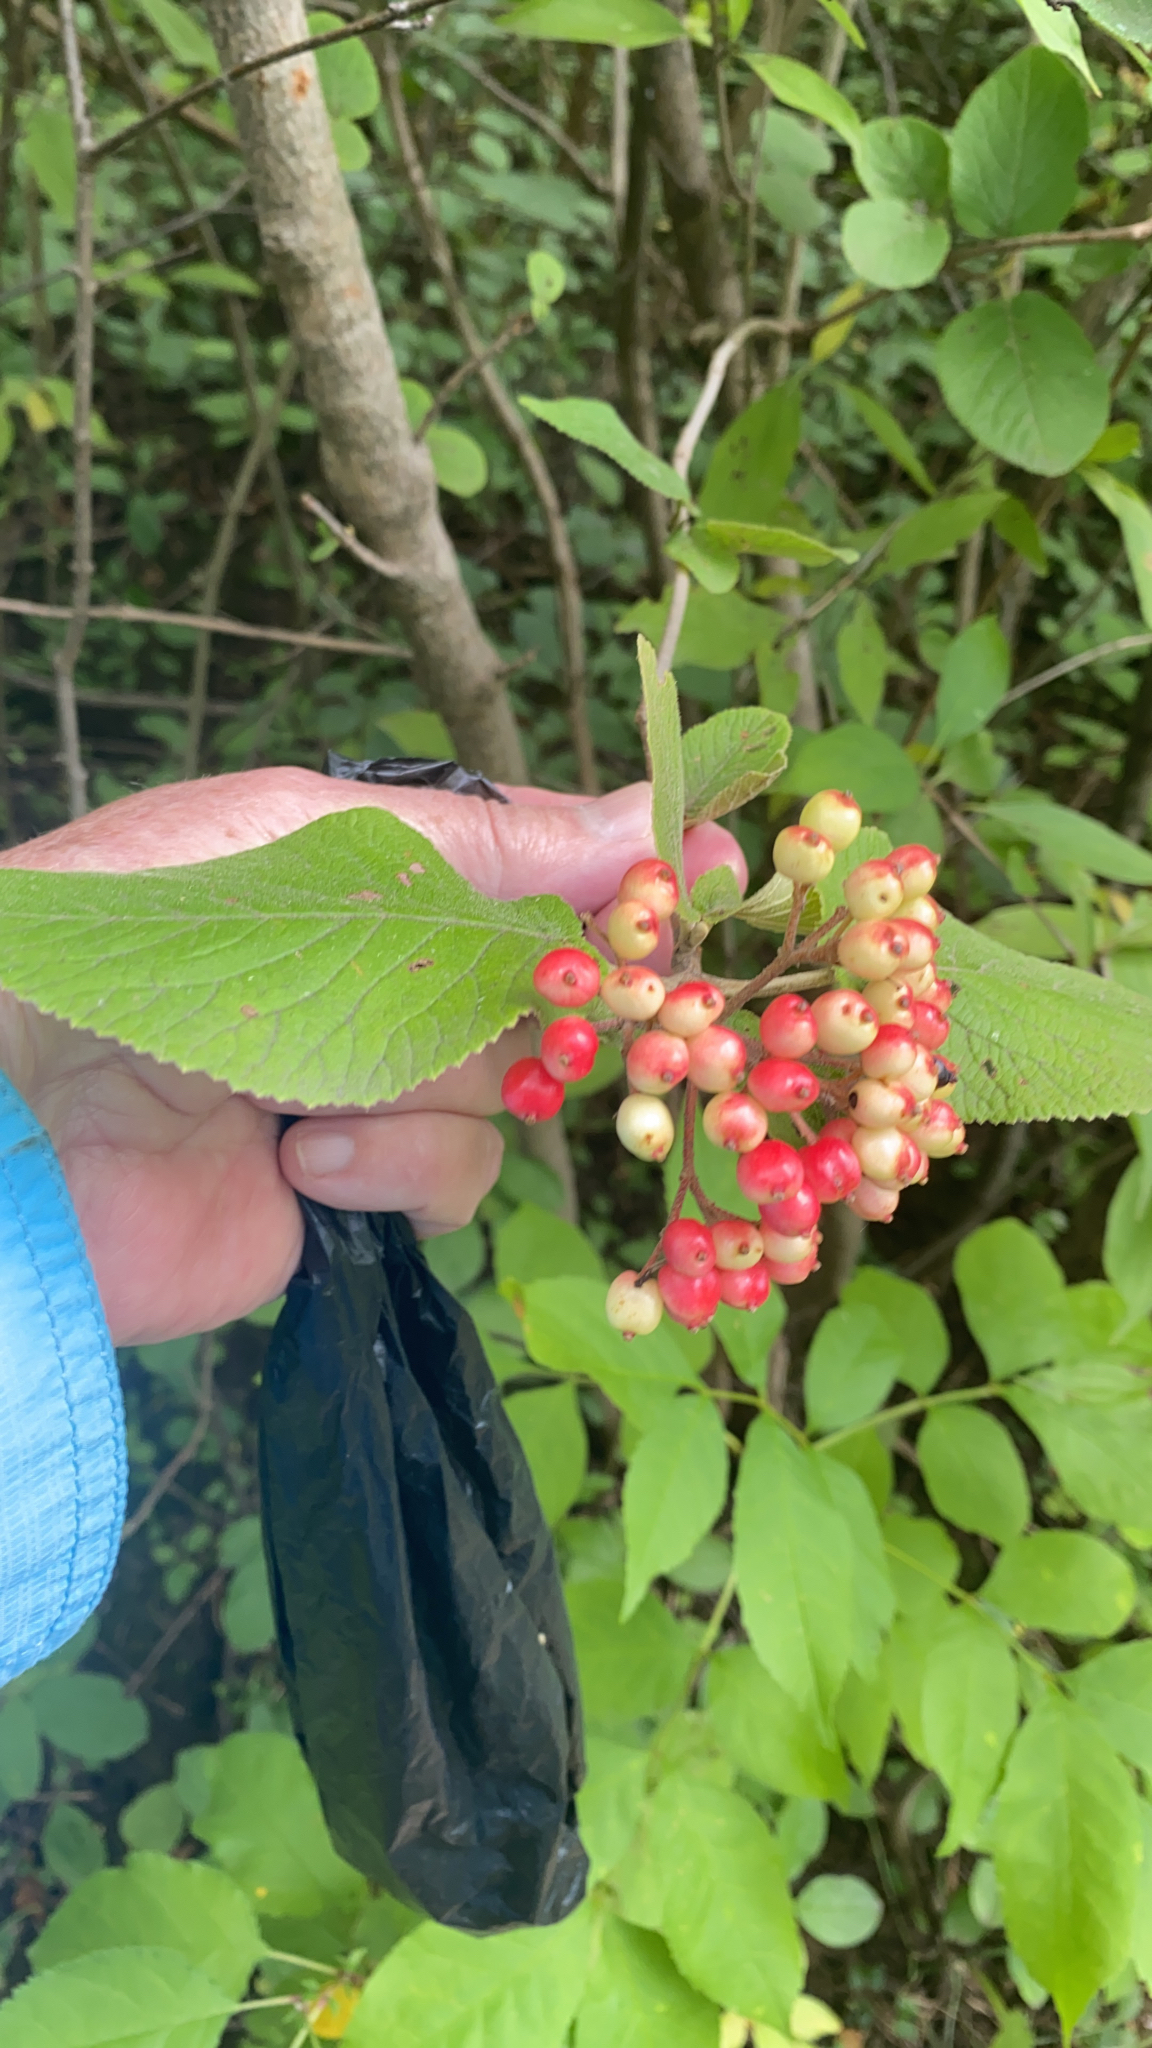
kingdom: Plantae
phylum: Tracheophyta
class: Magnoliopsida
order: Dipsacales
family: Viburnaceae
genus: Viburnum
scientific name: Viburnum lantana
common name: Wayfaring tree
